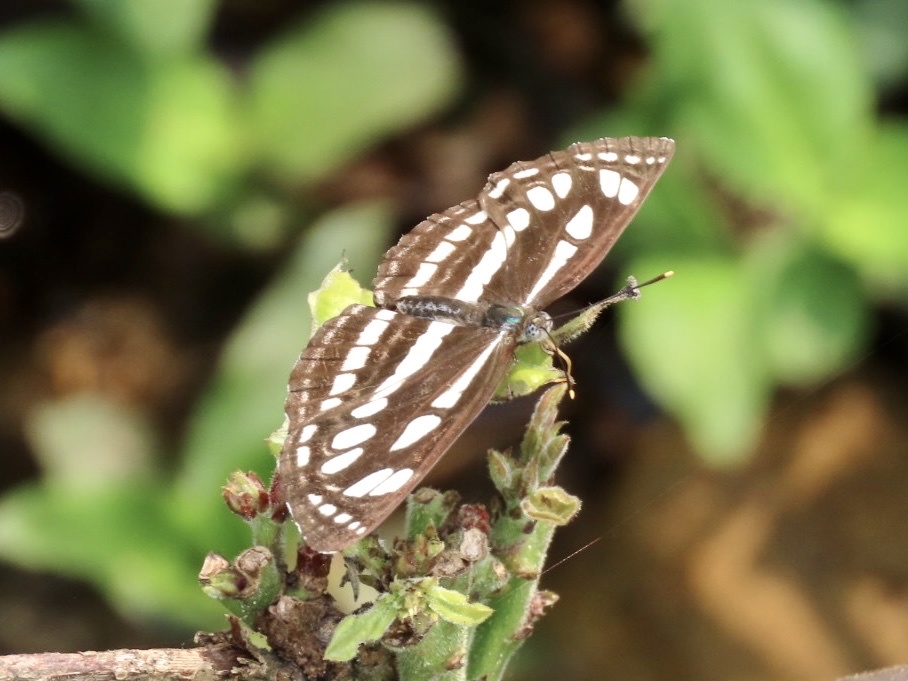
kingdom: Animalia
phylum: Arthropoda
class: Insecta
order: Lepidoptera
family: Nymphalidae
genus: Neptis
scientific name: Neptis hylas
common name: Common sailer
